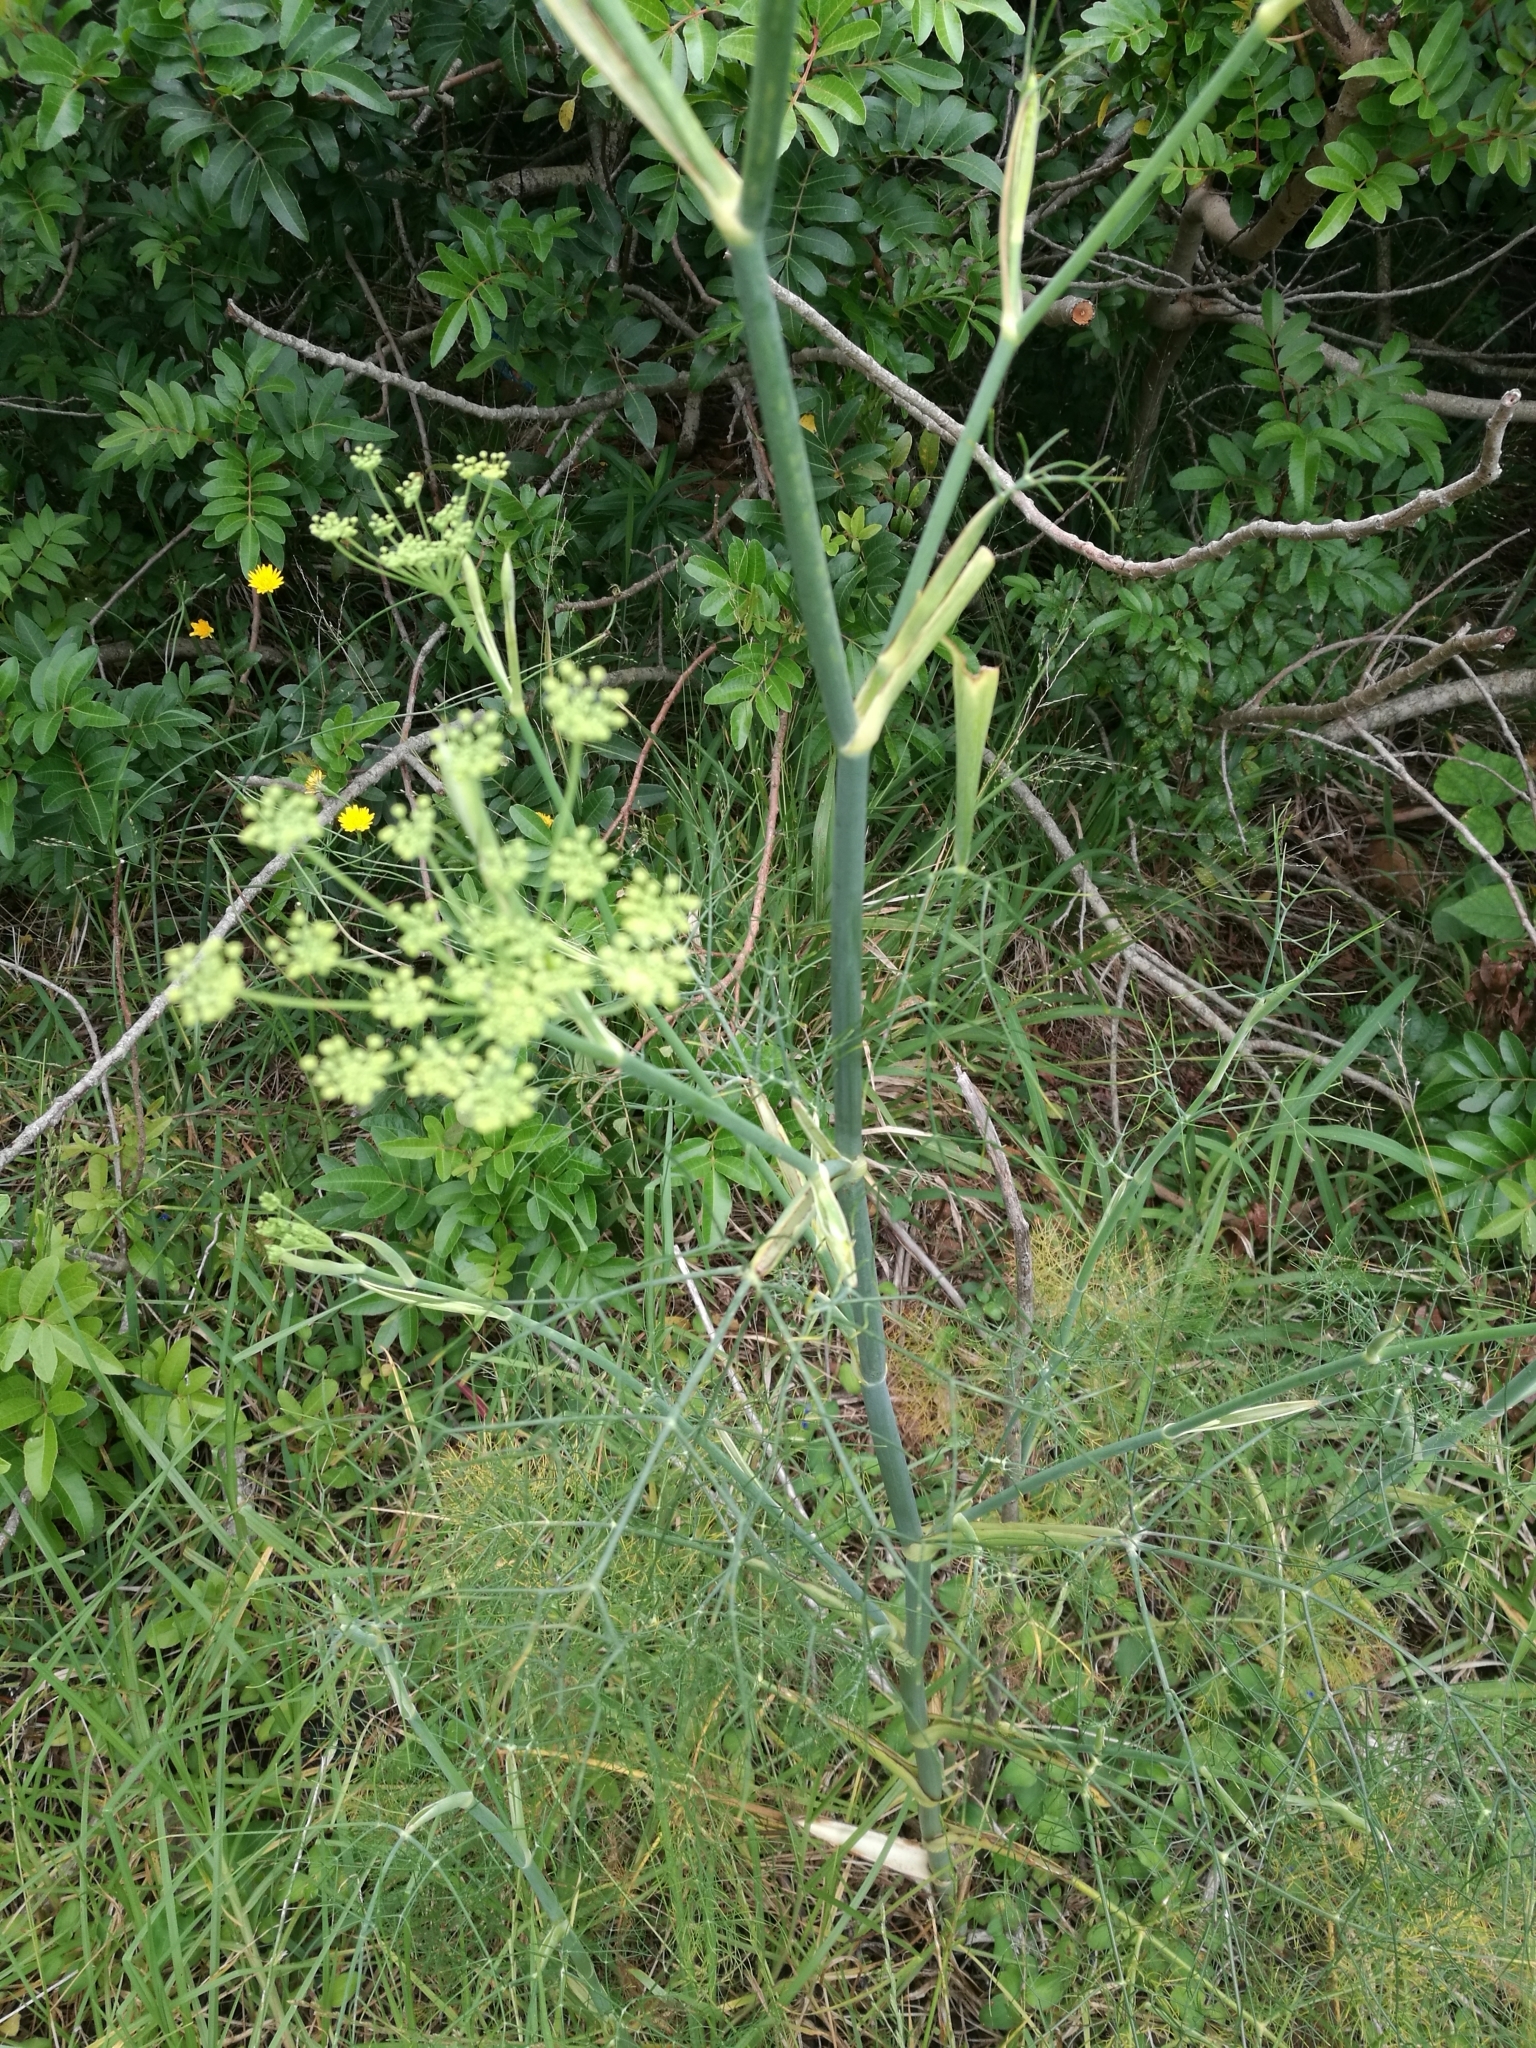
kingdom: Plantae
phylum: Tracheophyta
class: Magnoliopsida
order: Apiales
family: Apiaceae
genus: Foeniculum
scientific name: Foeniculum vulgare
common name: Fennel
